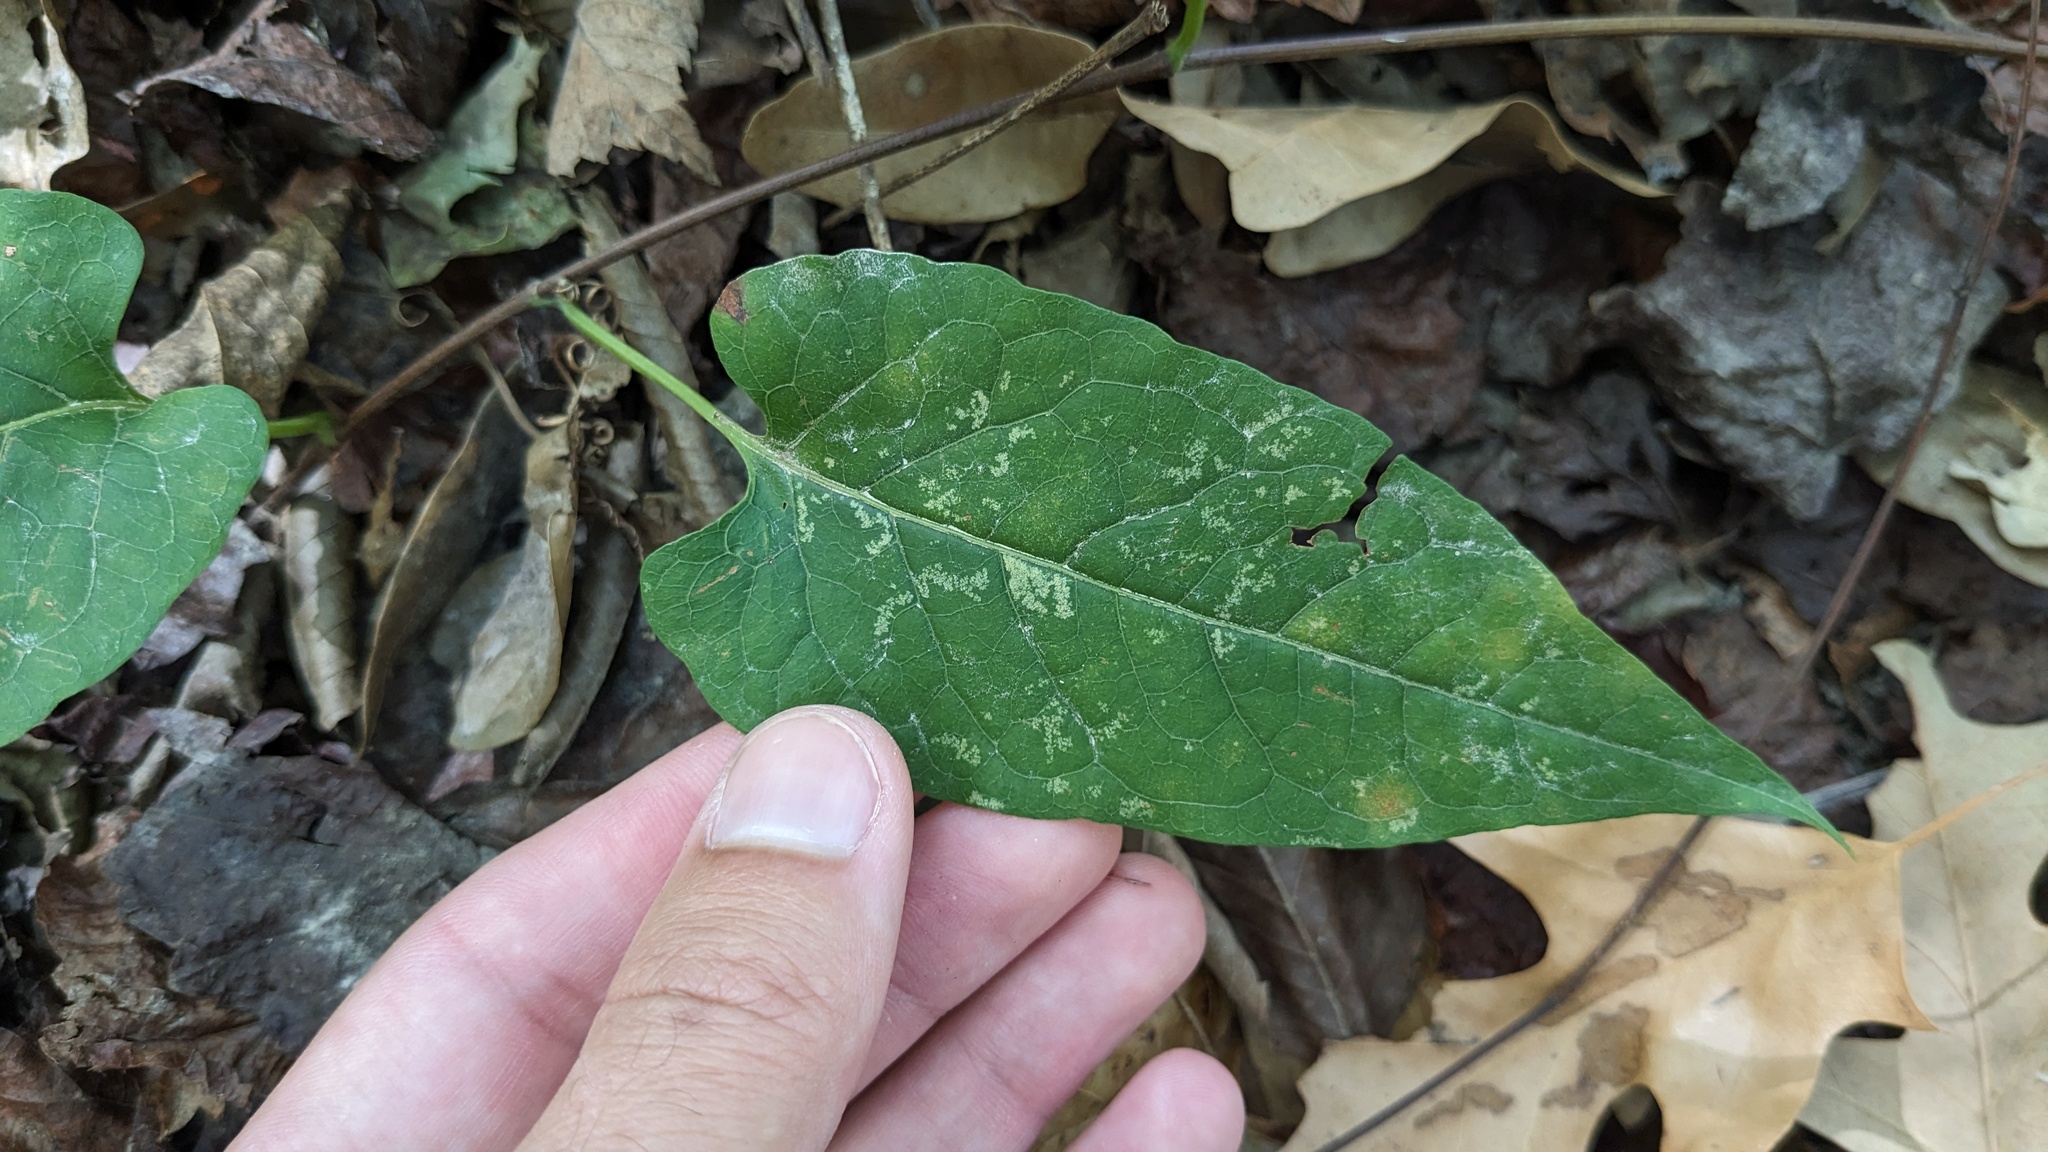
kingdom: Plantae
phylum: Tracheophyta
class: Magnoliopsida
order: Caryophyllales
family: Polygonaceae
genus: Brunnichia
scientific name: Brunnichia ovata
